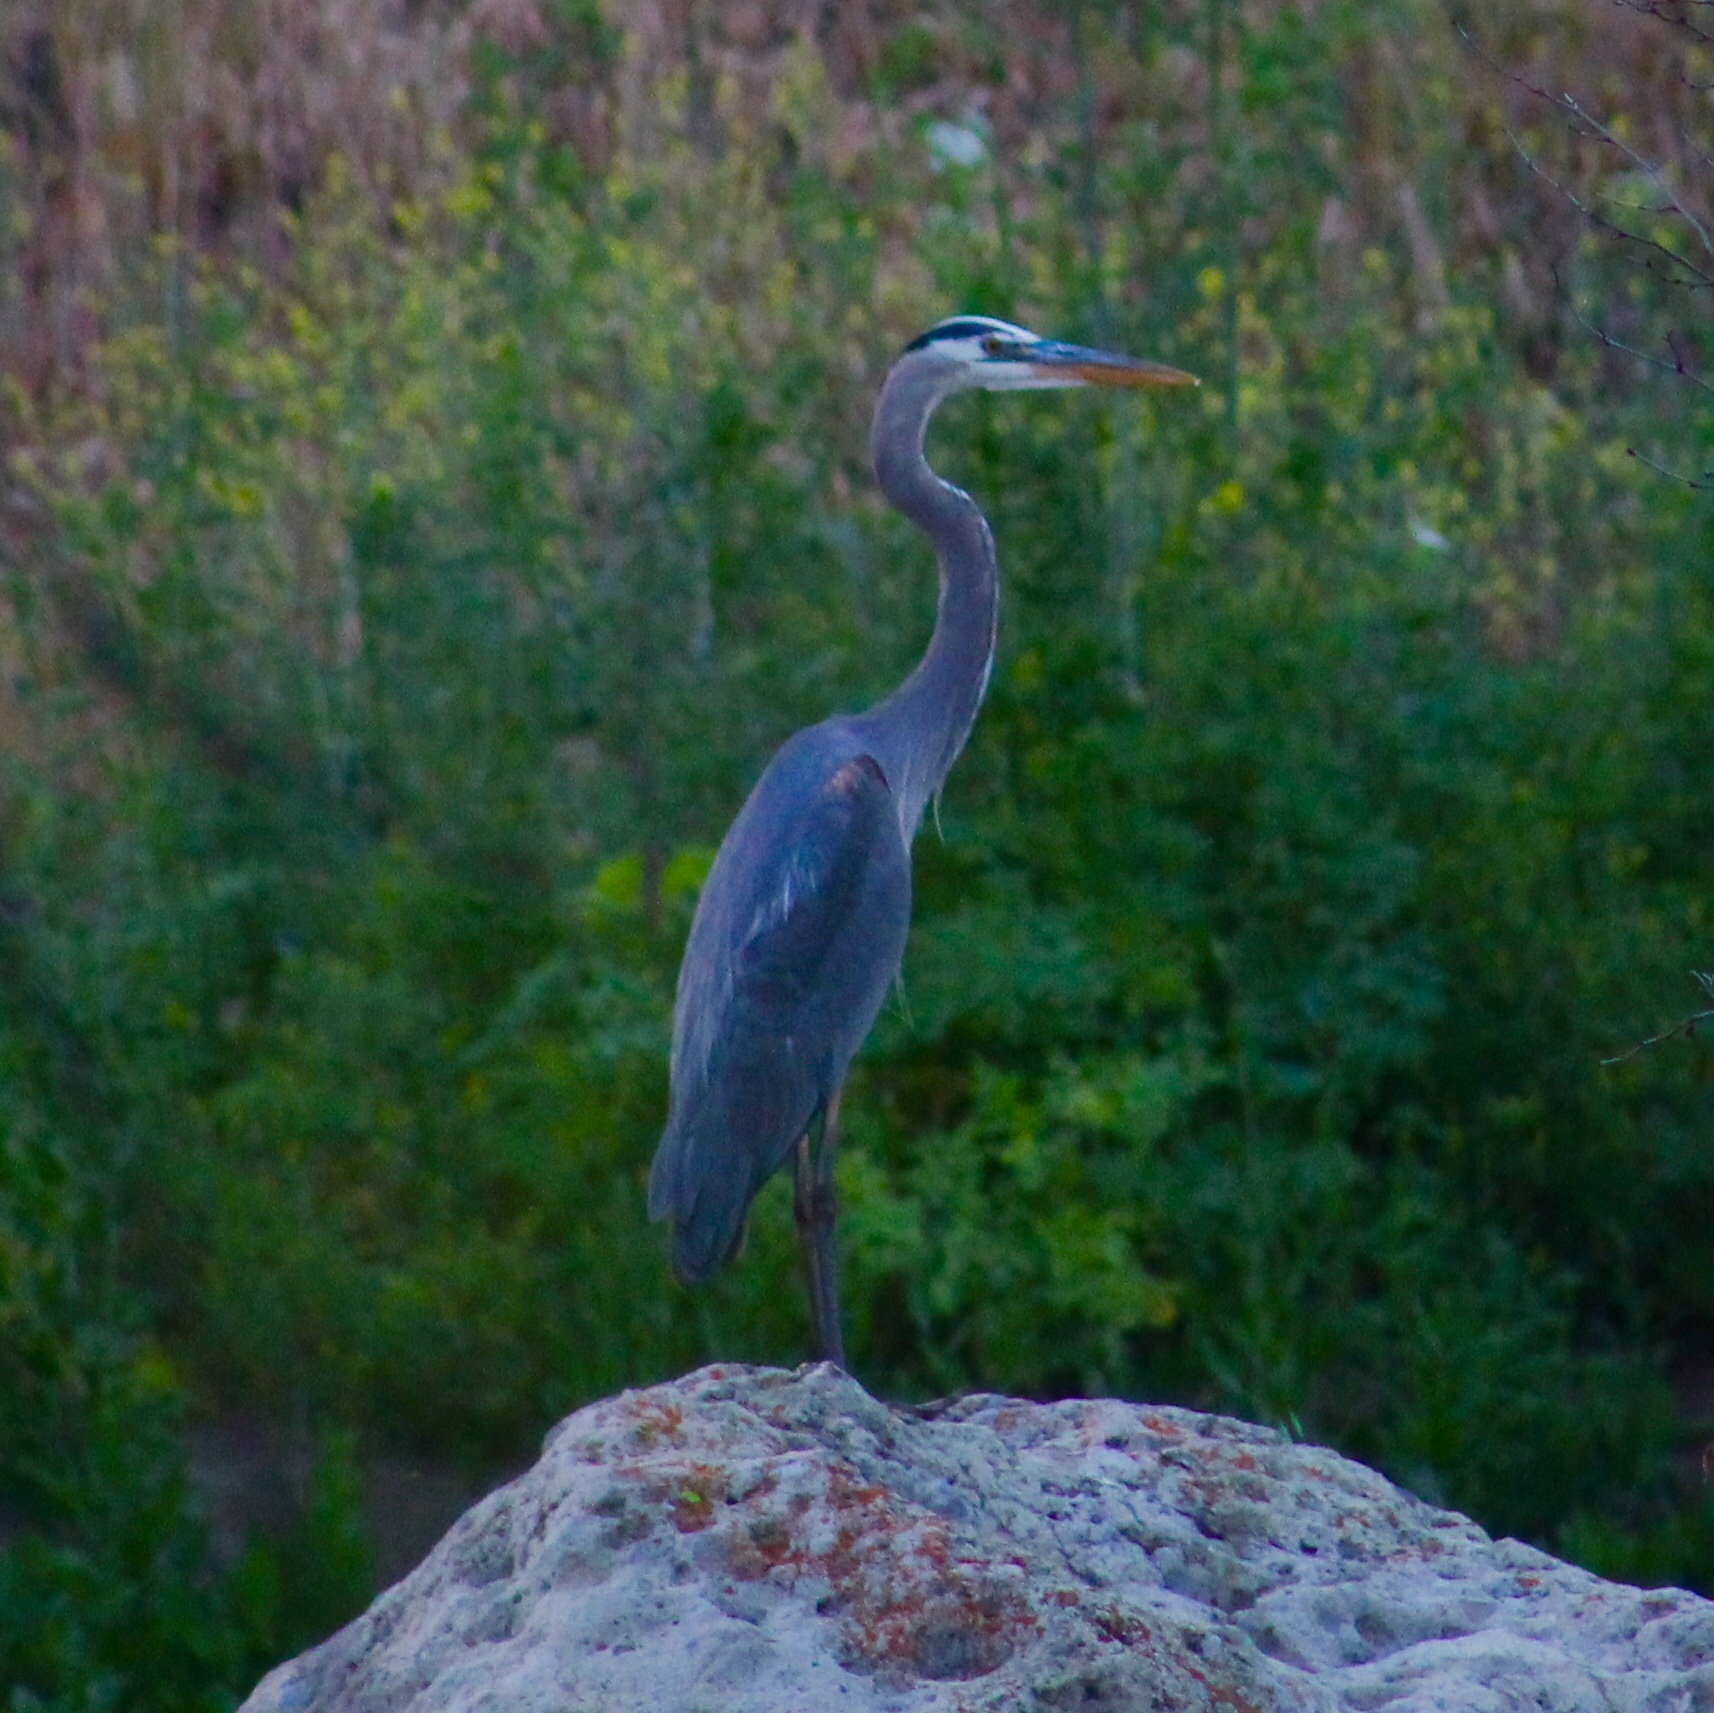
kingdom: Animalia
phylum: Chordata
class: Aves
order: Pelecaniformes
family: Ardeidae
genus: Ardea
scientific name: Ardea herodias
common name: Great blue heron
